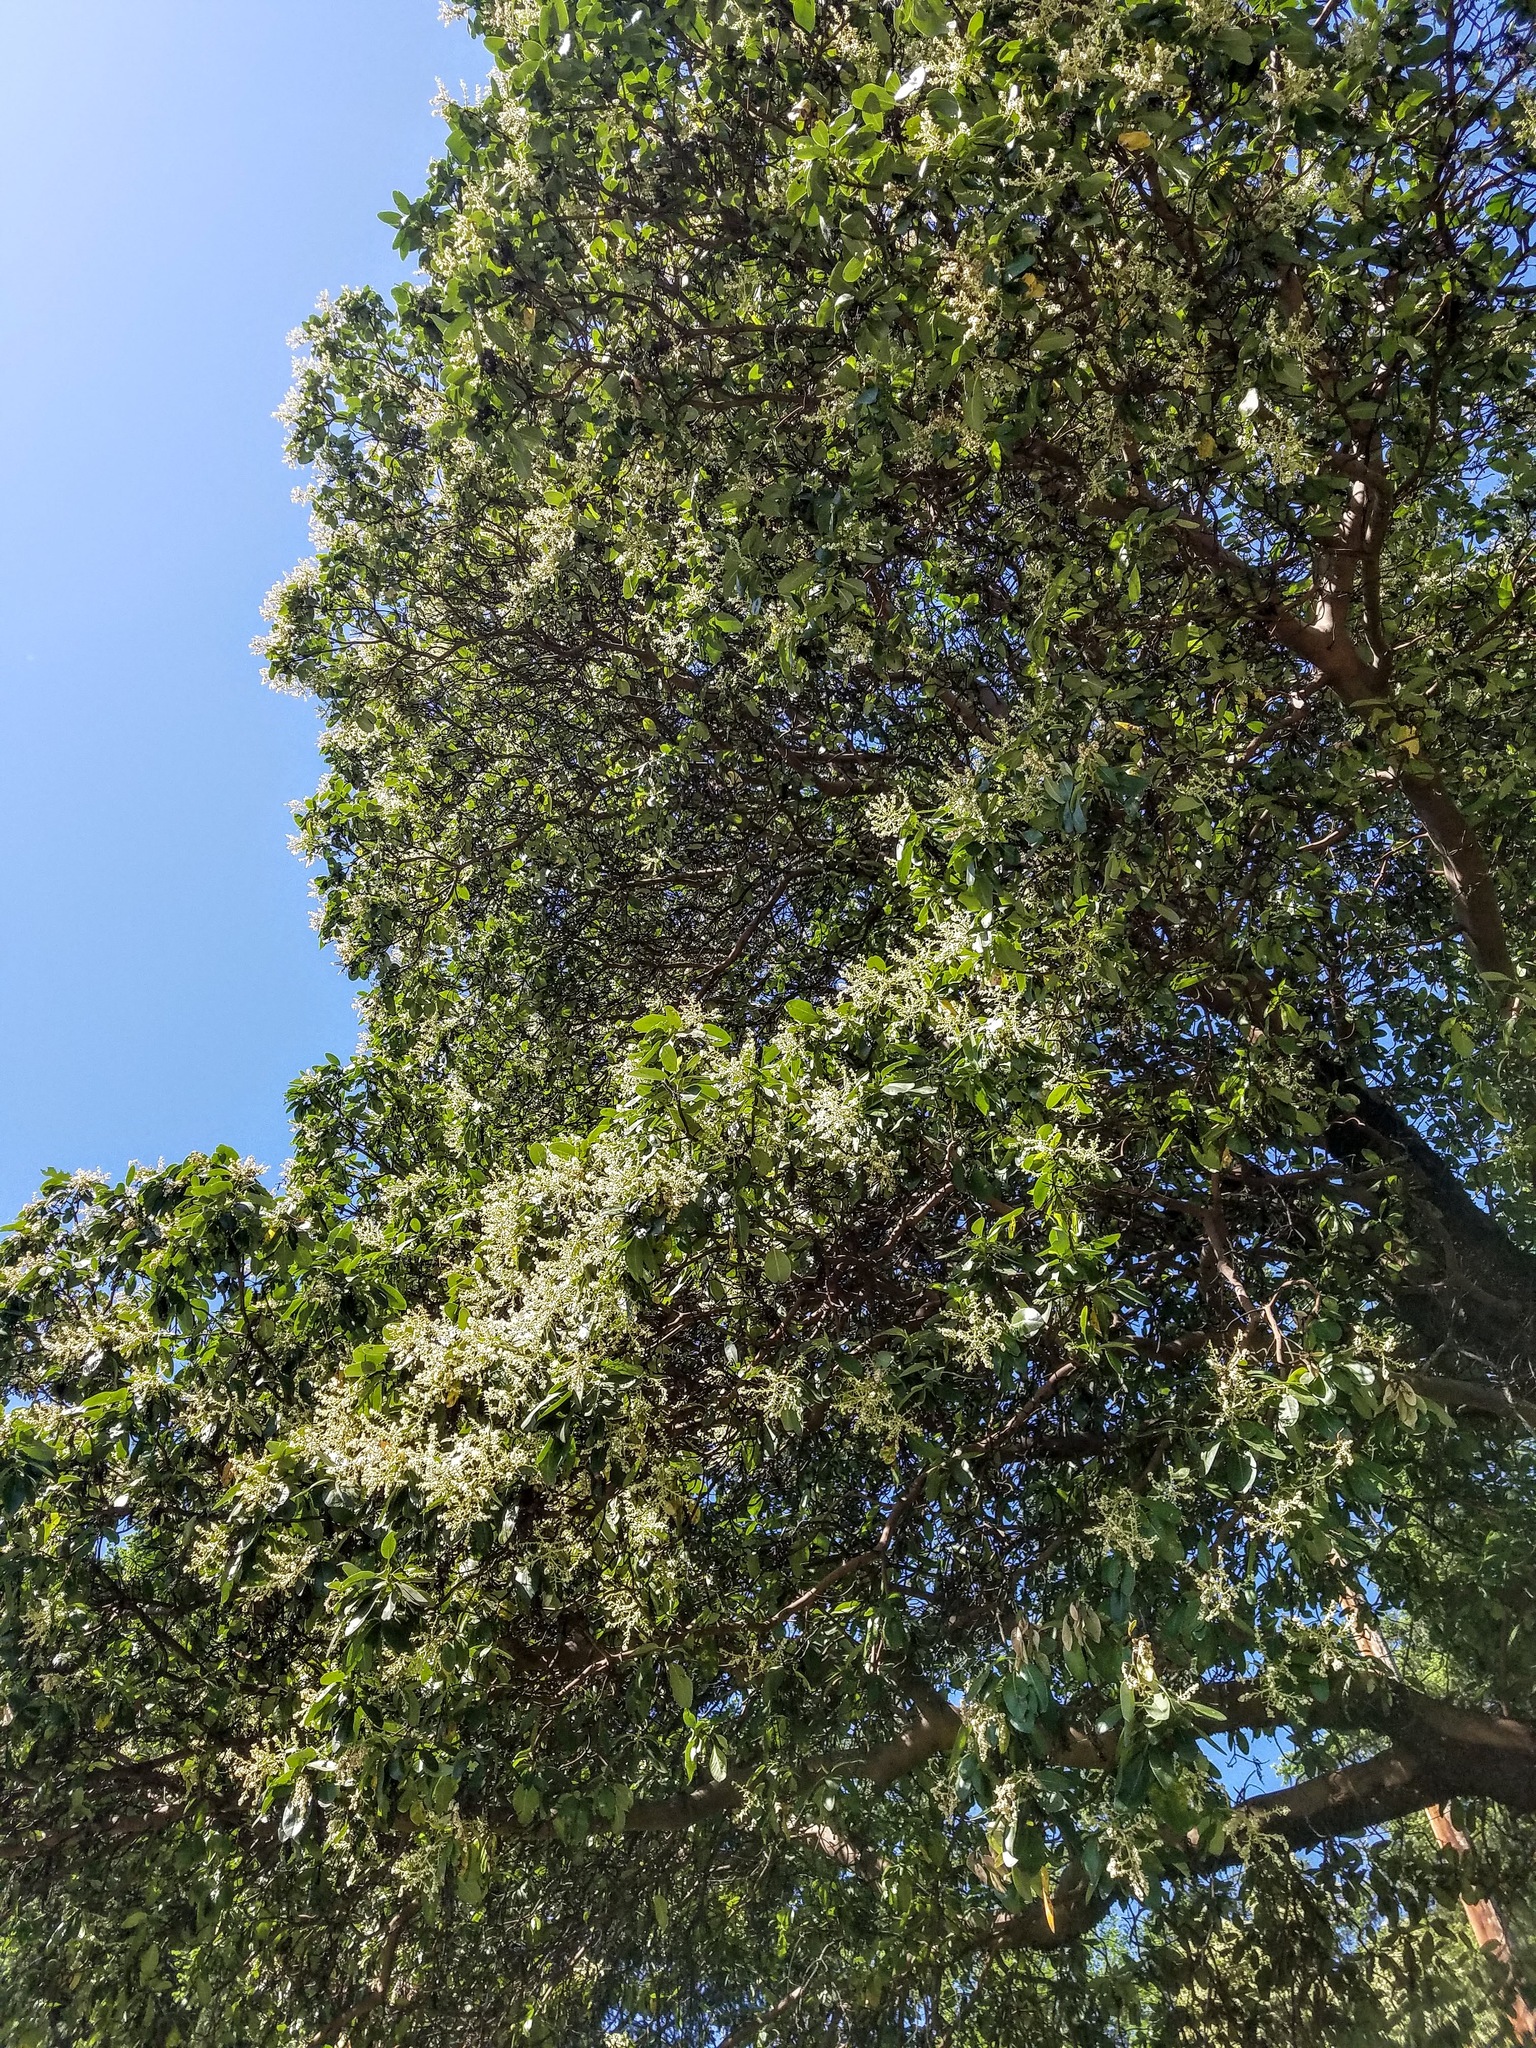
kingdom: Plantae
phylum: Tracheophyta
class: Magnoliopsida
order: Ericales
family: Ericaceae
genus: Arbutus
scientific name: Arbutus menziesii
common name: Pacific madrone
